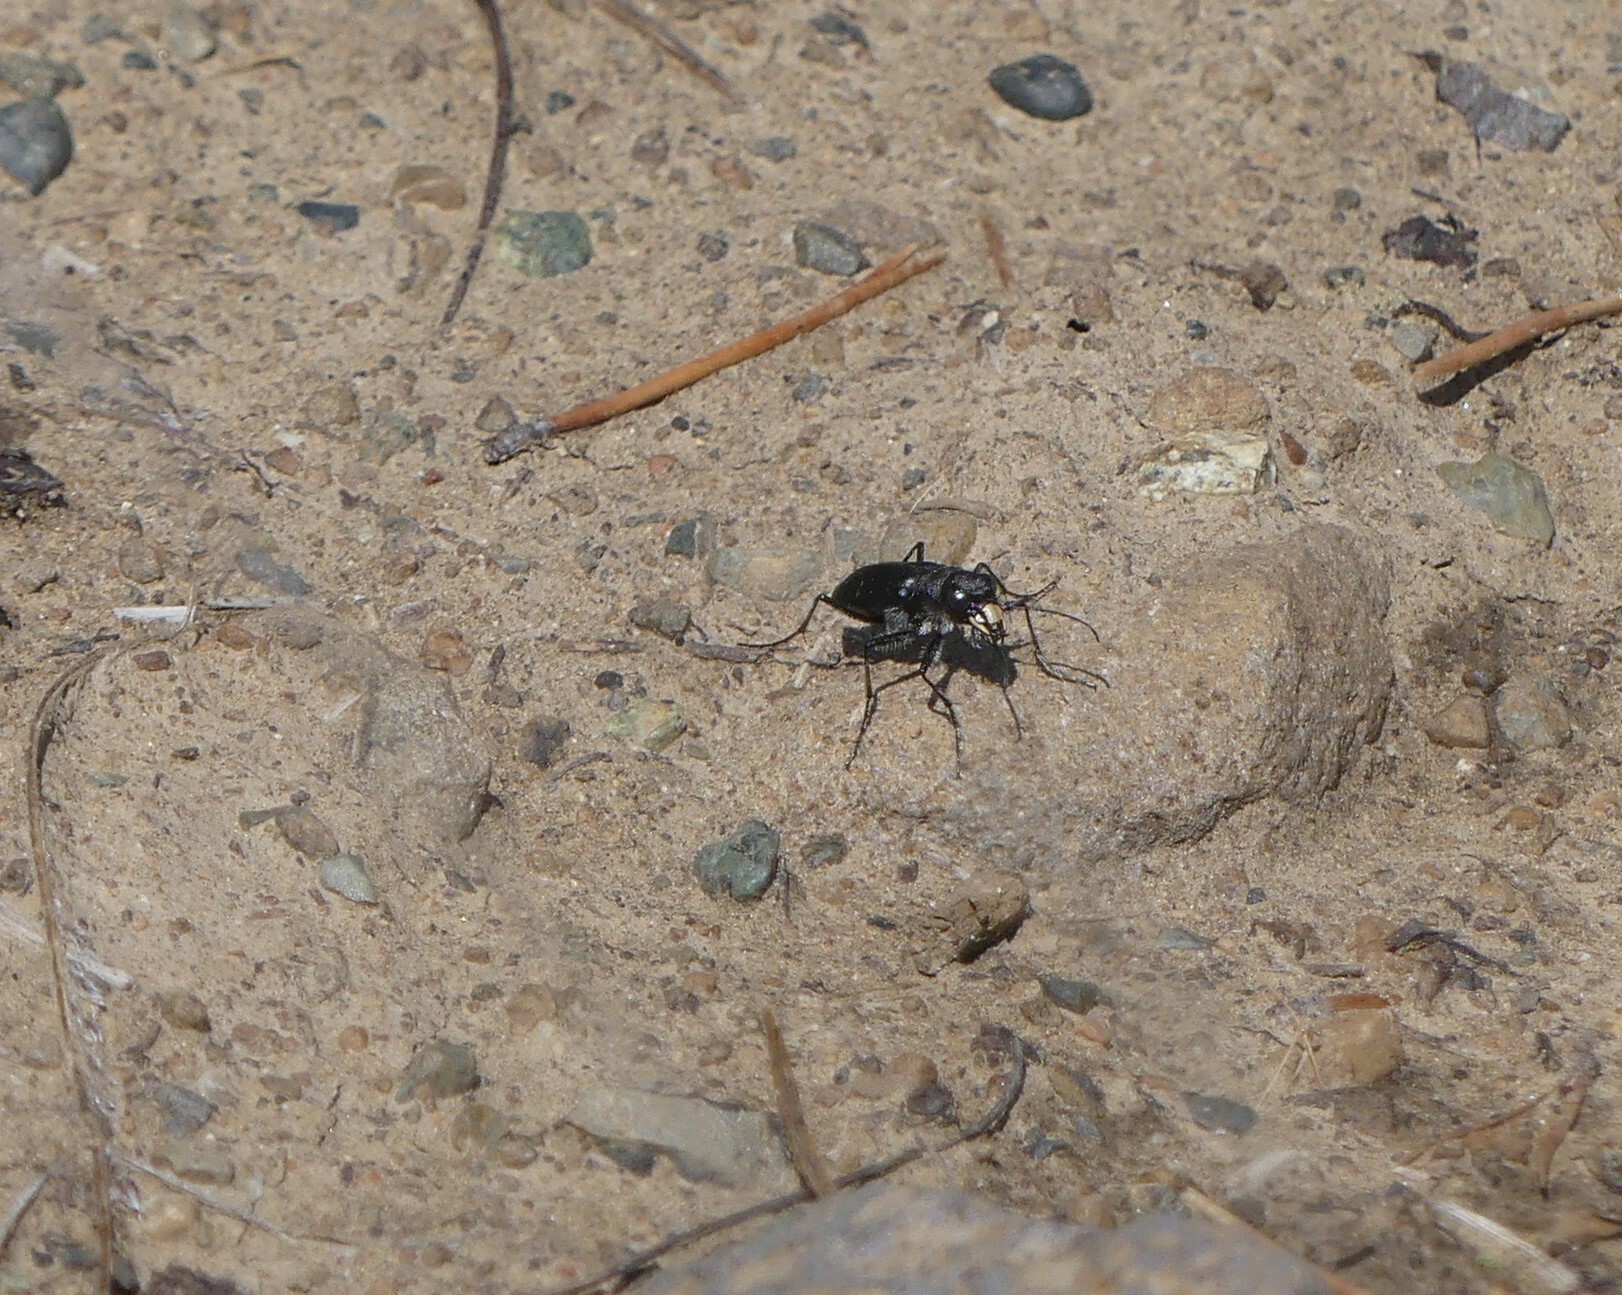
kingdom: Animalia
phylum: Arthropoda
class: Insecta
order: Coleoptera
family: Carabidae
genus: Cicindela
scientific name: Cicindela longilabris
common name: Boreal long-lipped tiger beetle
